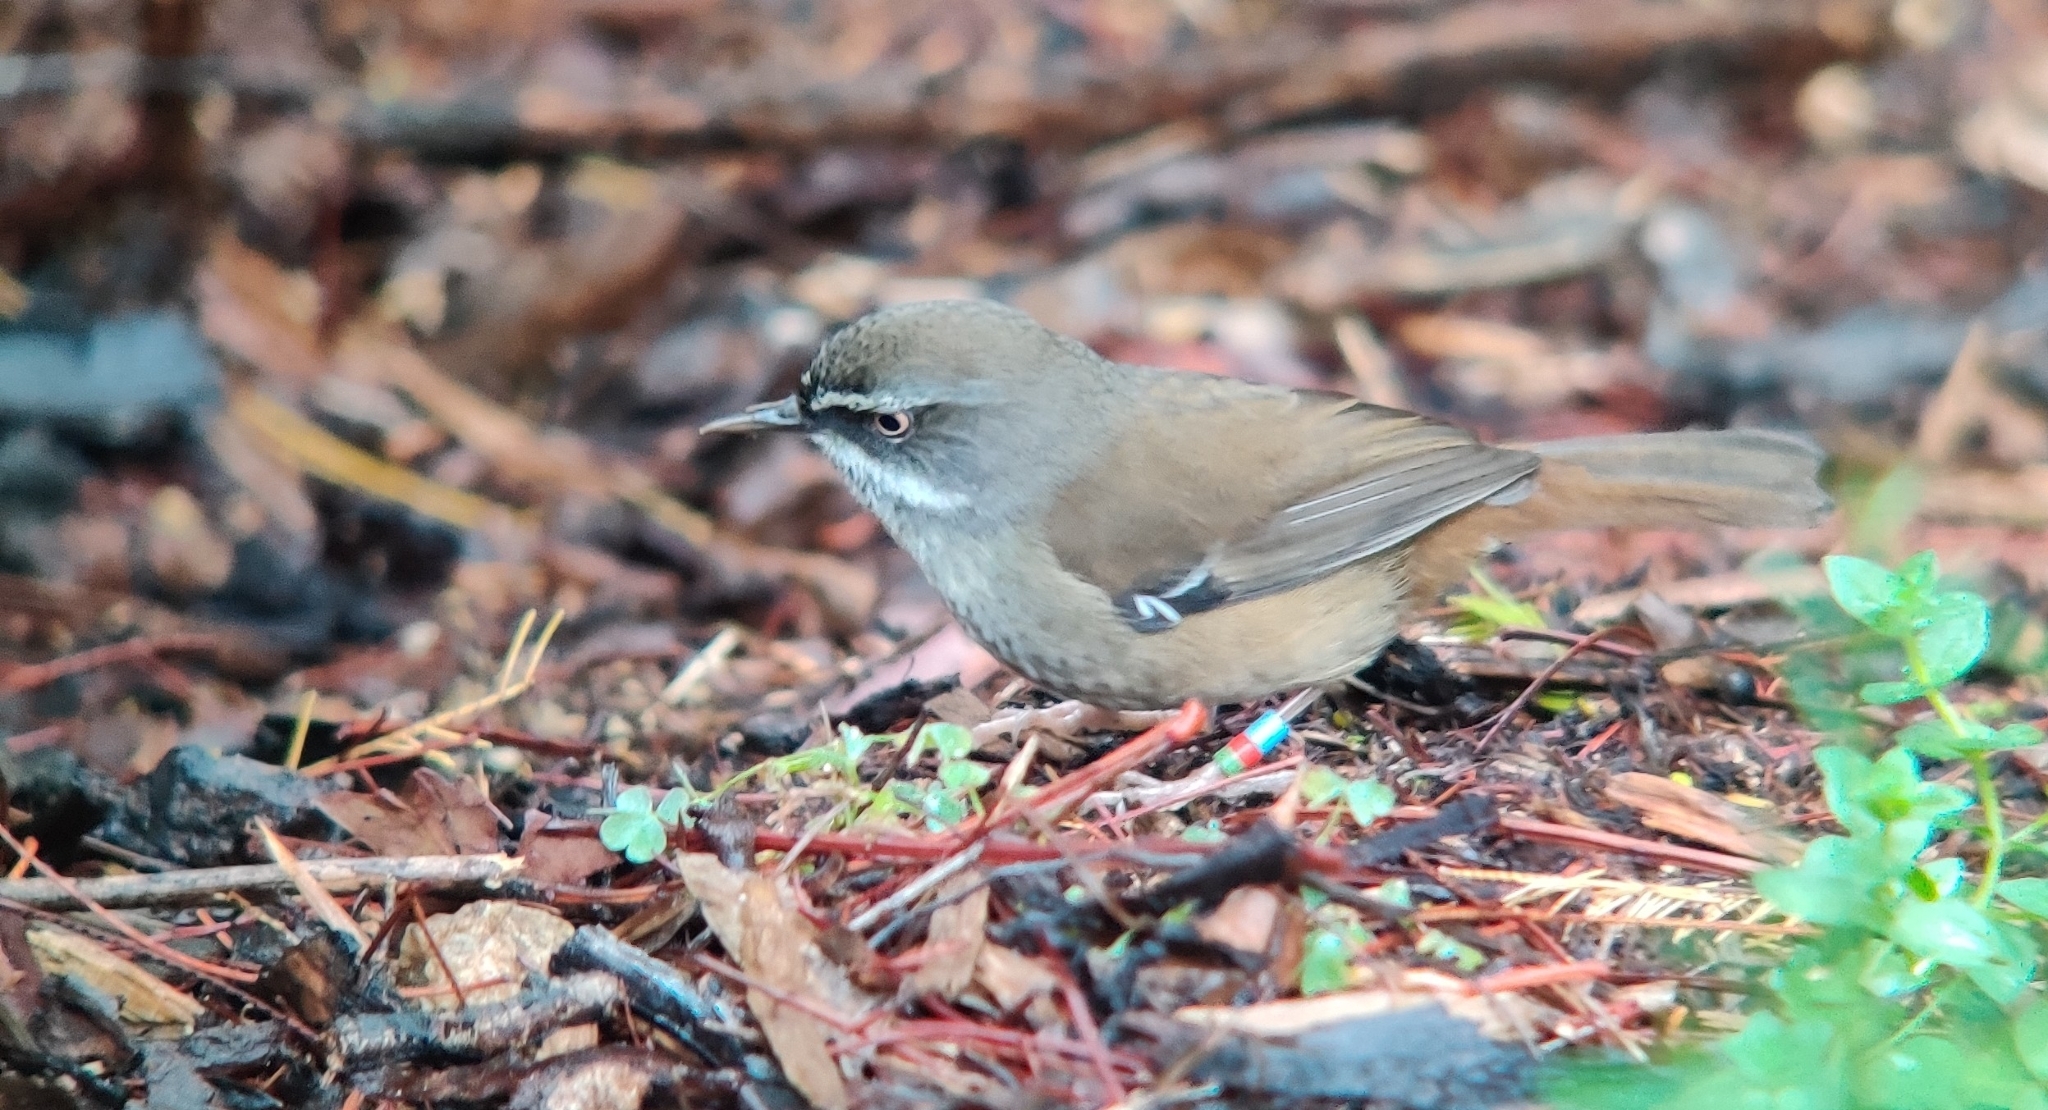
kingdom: Animalia
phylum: Chordata
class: Aves
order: Passeriformes
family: Acanthizidae
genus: Sericornis
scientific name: Sericornis frontalis
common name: White-browed scrubwren
